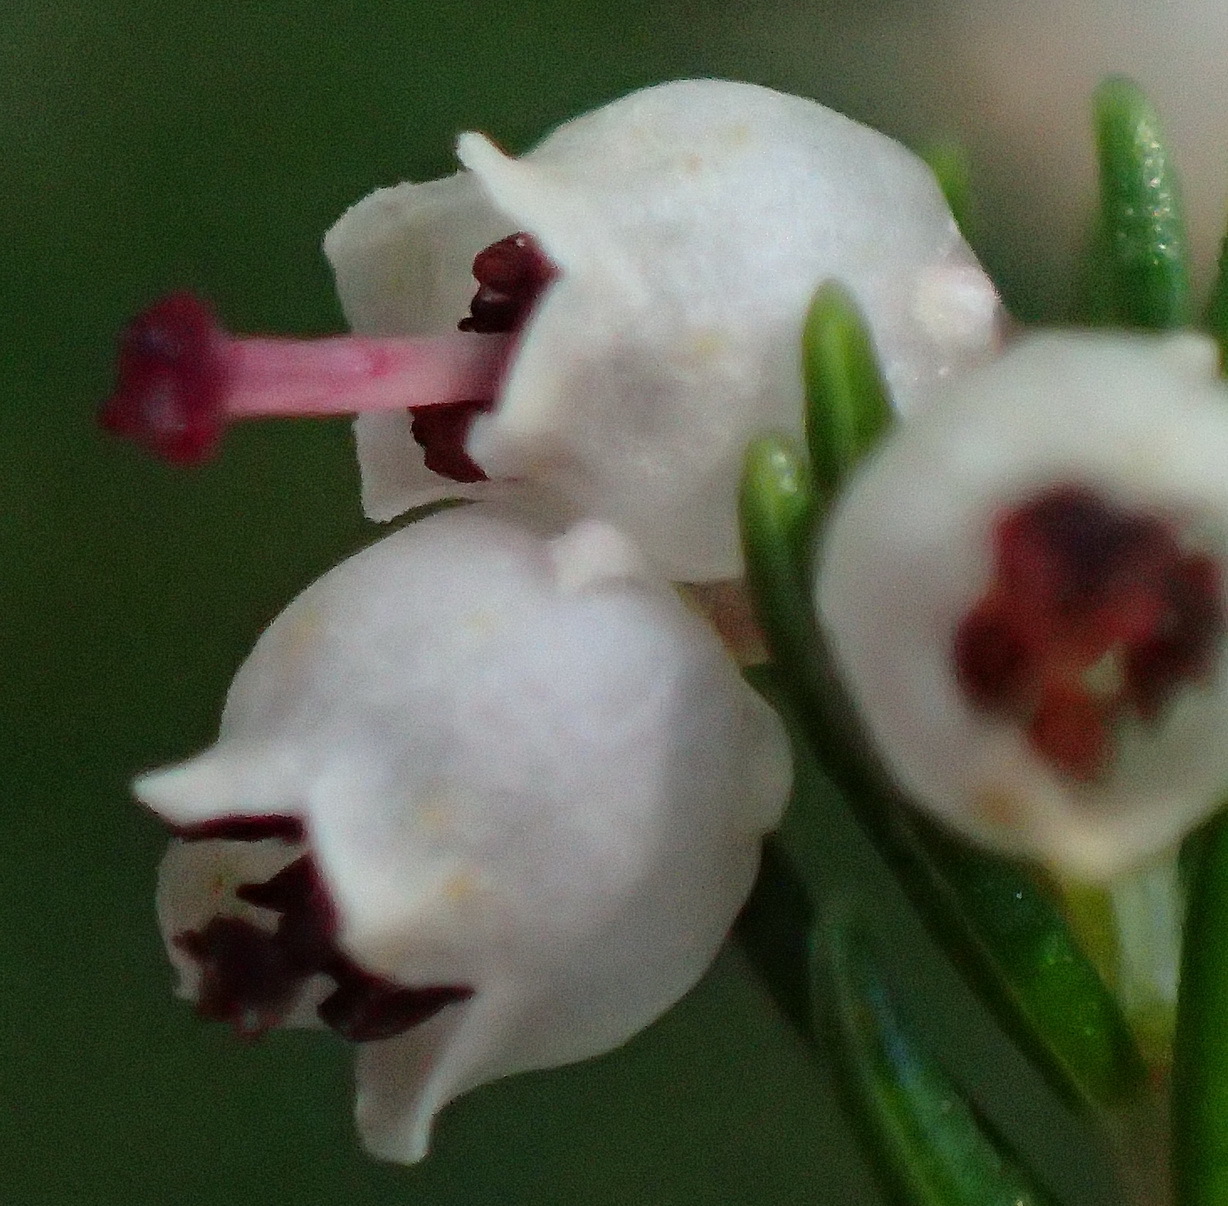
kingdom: Plantae
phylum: Tracheophyta
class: Magnoliopsida
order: Ericales
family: Ericaceae
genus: Erica
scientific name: Erica inconstans
